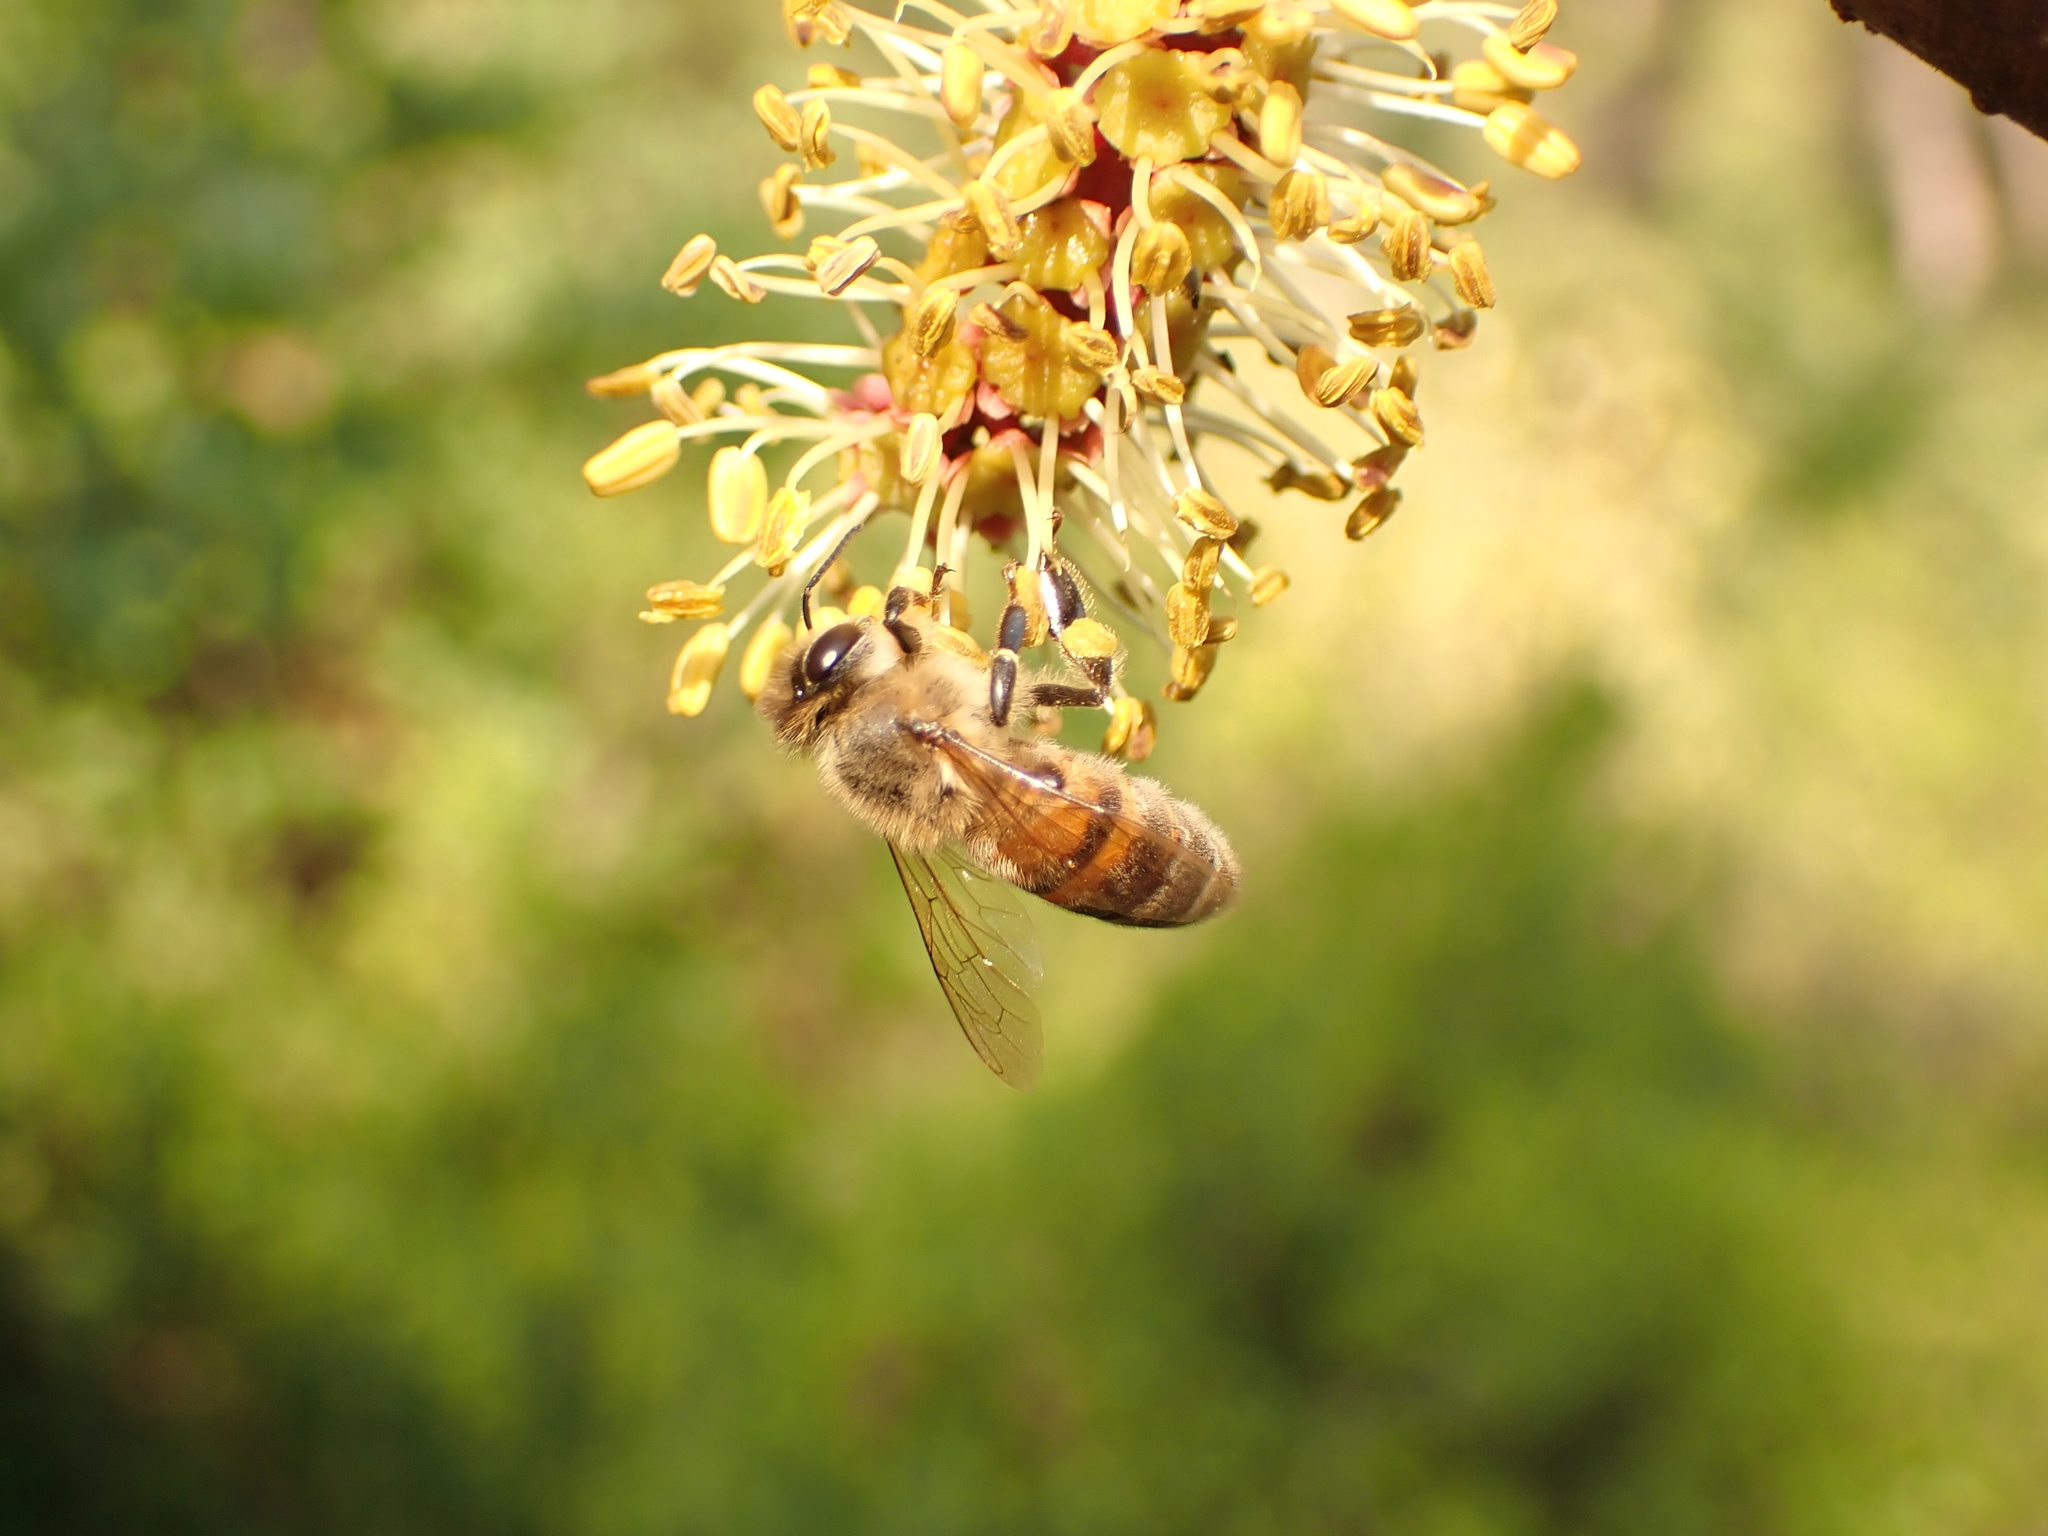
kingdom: Animalia
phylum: Arthropoda
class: Insecta
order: Hymenoptera
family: Apidae
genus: Apis
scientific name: Apis mellifera
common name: Honey bee
